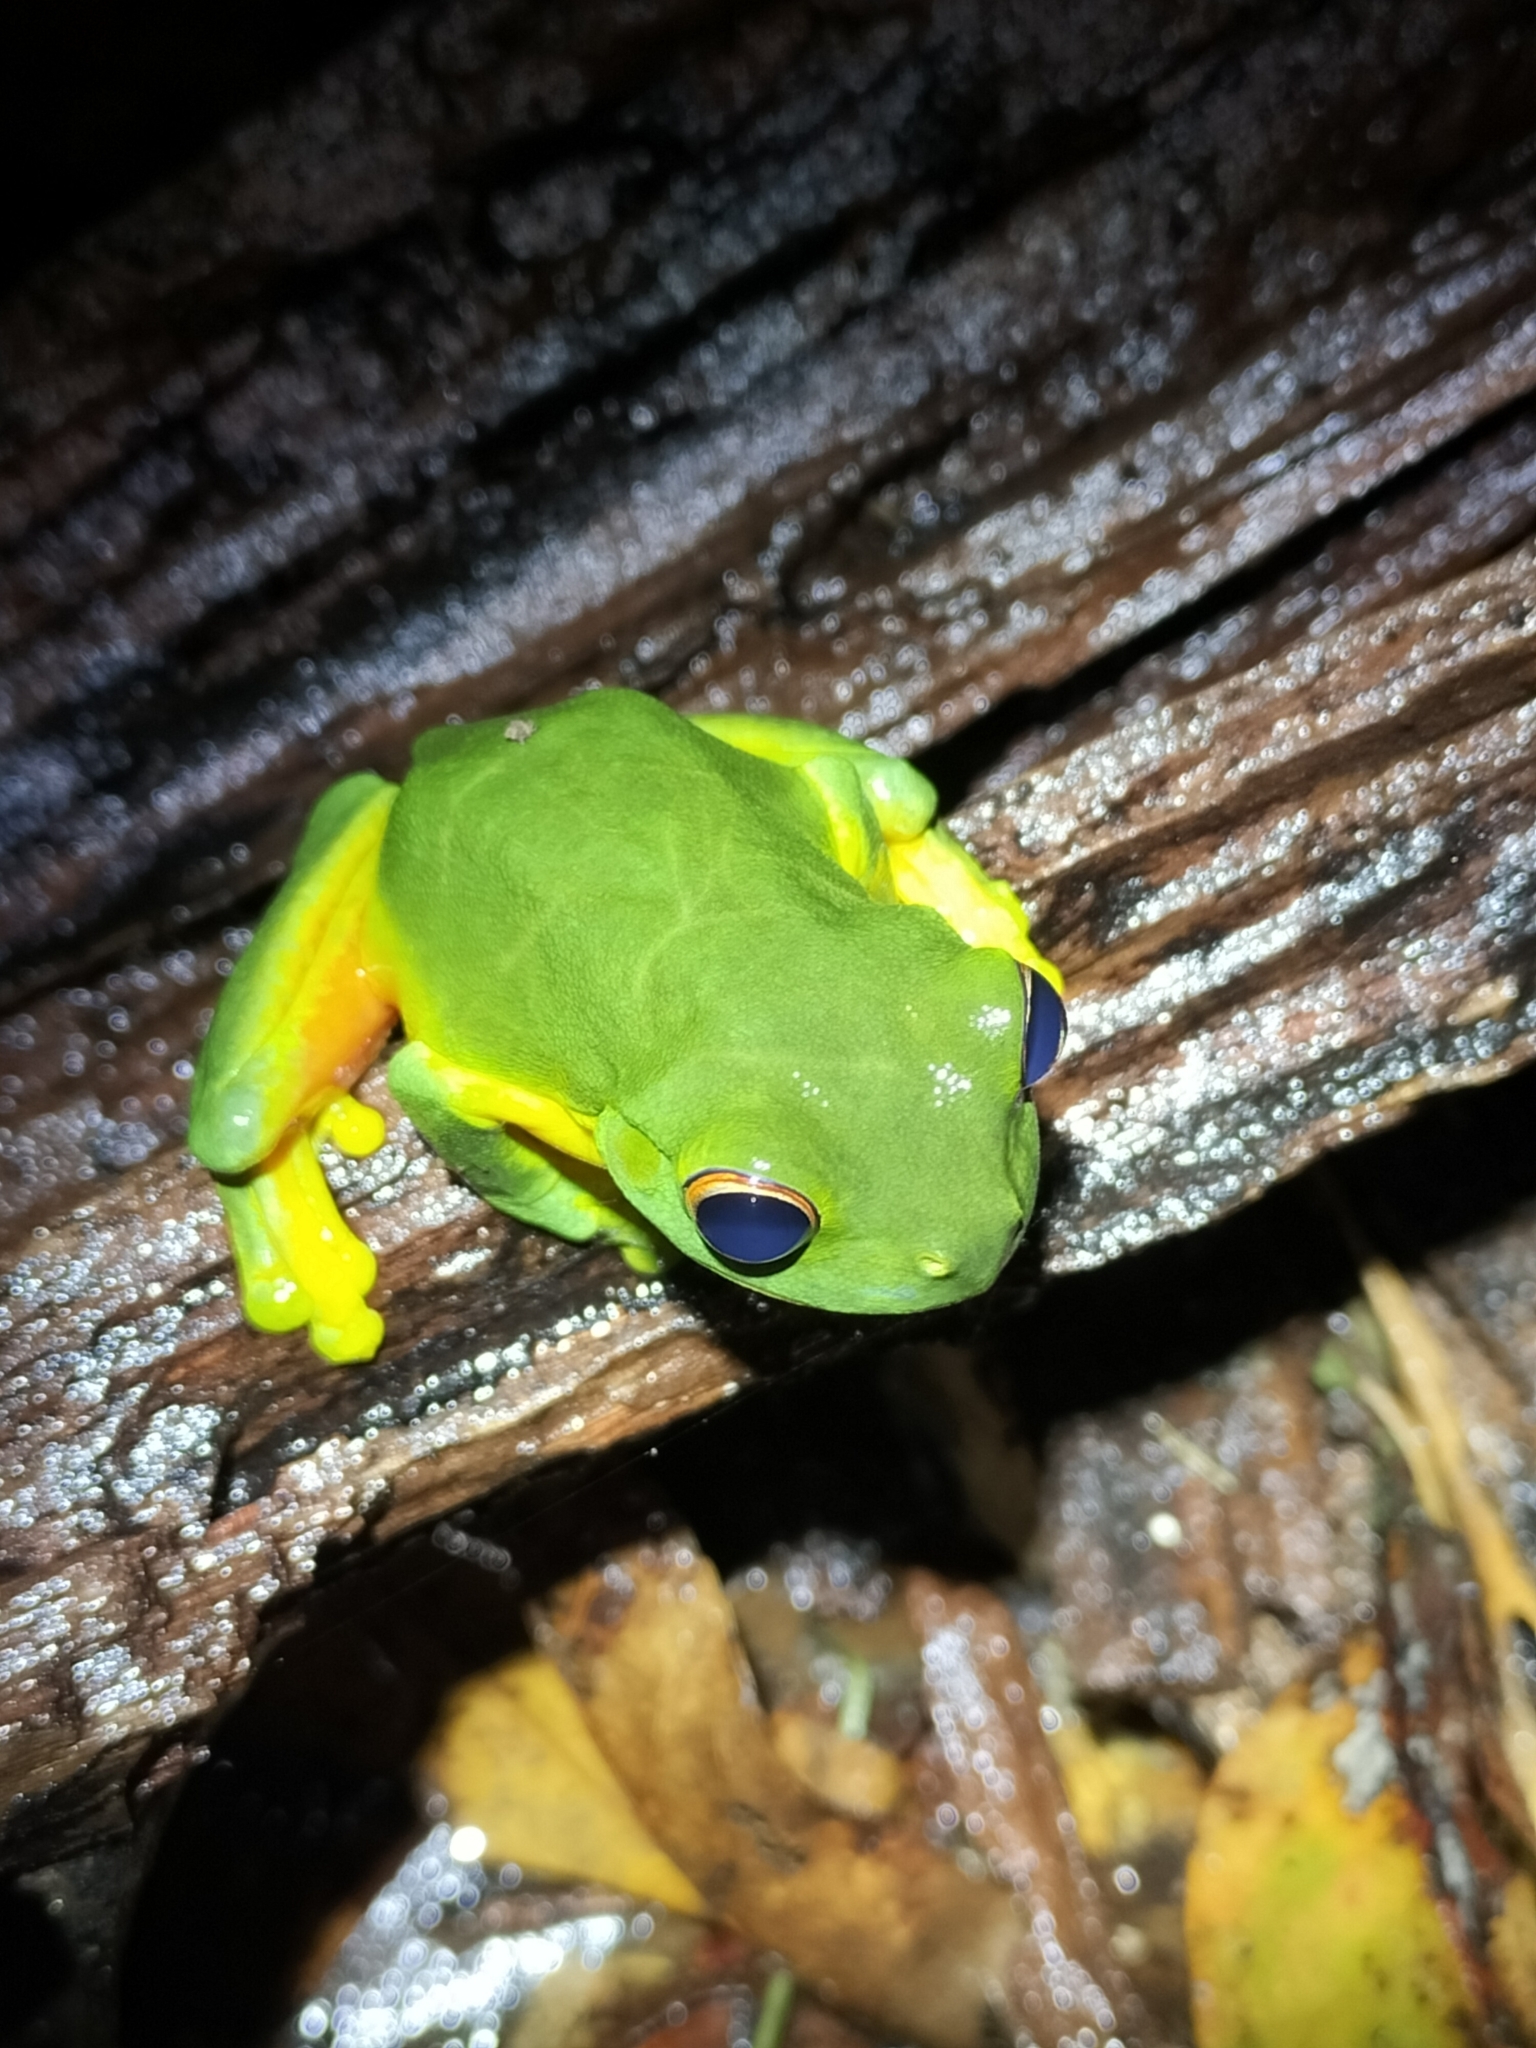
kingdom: Animalia
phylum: Chordata
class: Amphibia
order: Anura
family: Pelodryadidae
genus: Ranoidea
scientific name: Ranoidea xanthomera
